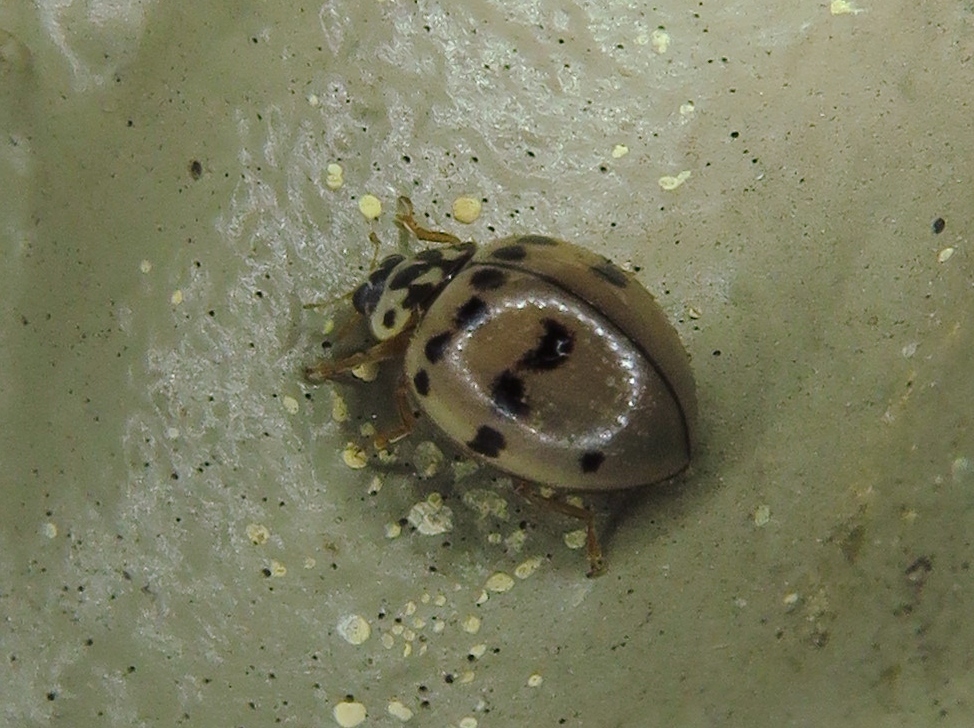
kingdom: Animalia
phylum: Arthropoda
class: Insecta
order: Coleoptera
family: Coccinellidae
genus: Olla
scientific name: Olla v-nigrum
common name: Ashy gray lady beetle
